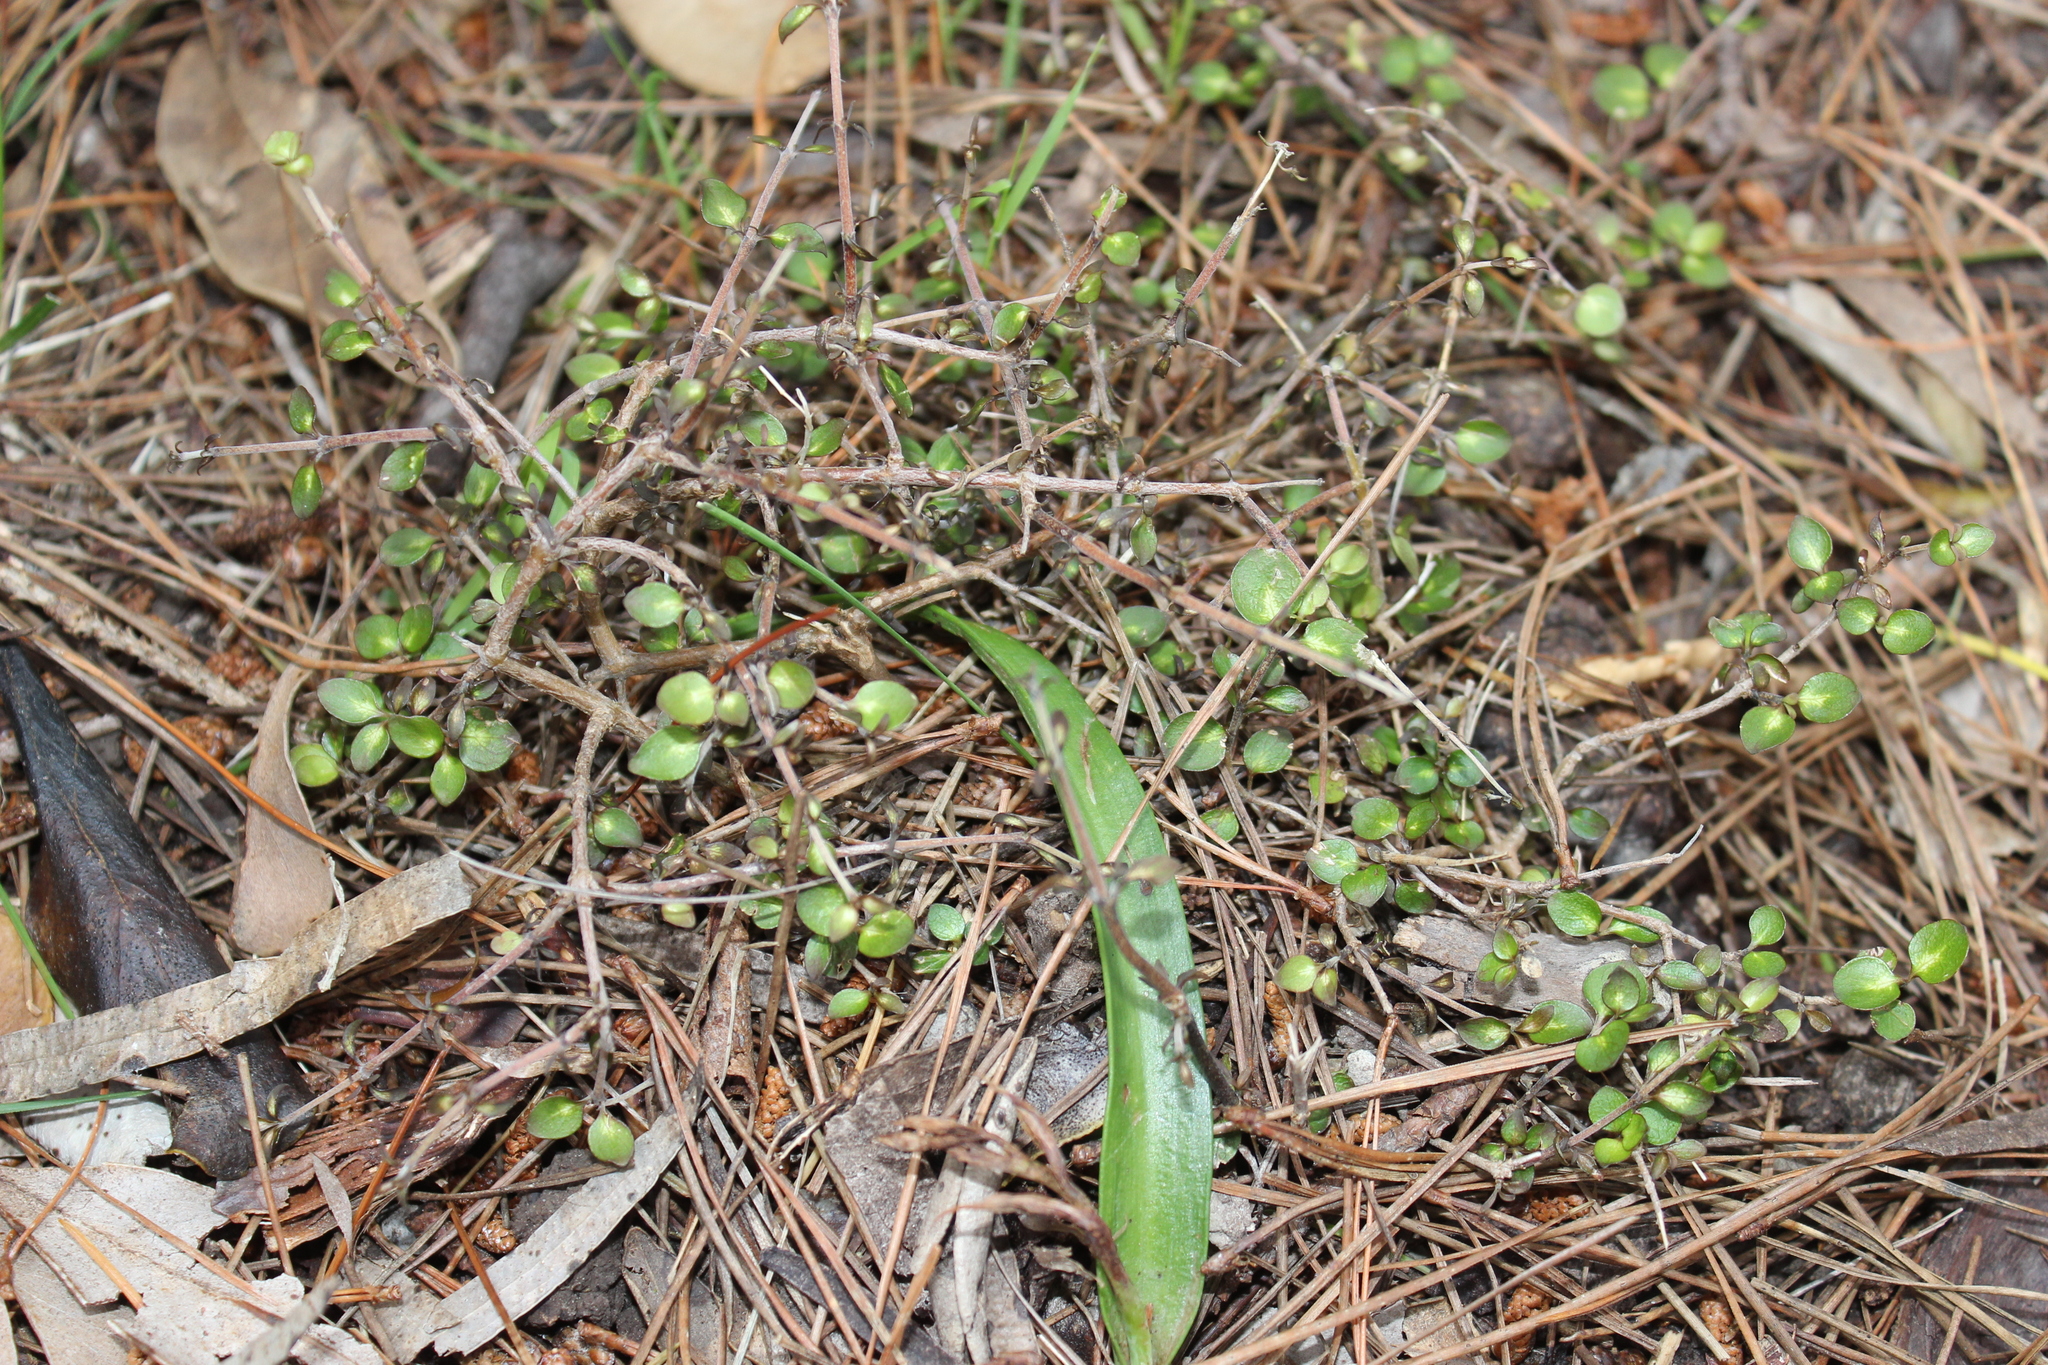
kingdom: Plantae
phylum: Tracheophyta
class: Magnoliopsida
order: Gentianales
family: Rubiaceae
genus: Coprosma
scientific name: Coprosma rhamnoides
